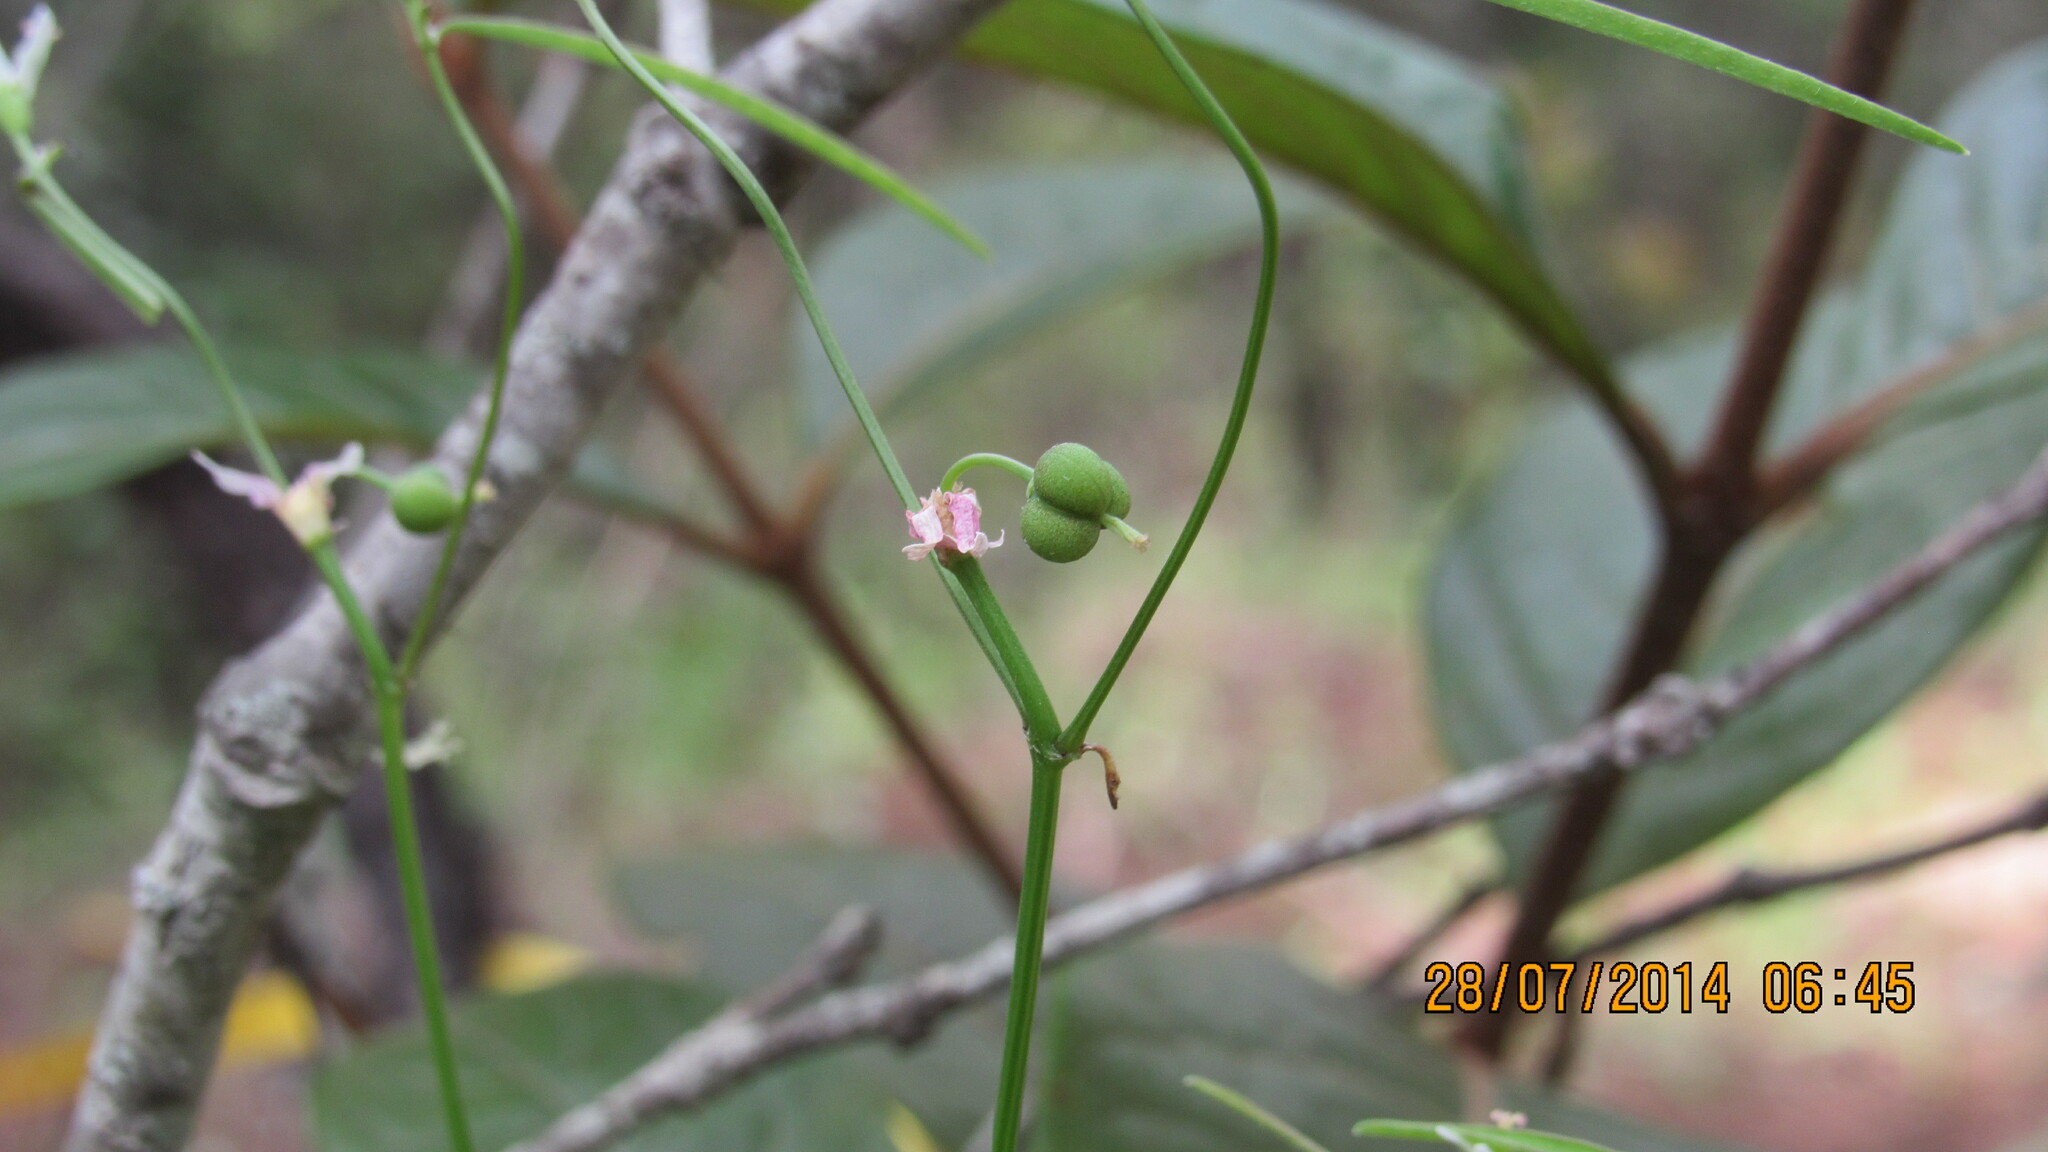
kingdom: Plantae
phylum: Tracheophyta
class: Magnoliopsida
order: Malpighiales
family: Euphorbiaceae
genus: Euphorbia
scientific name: Euphorbia sphaerorhiza
